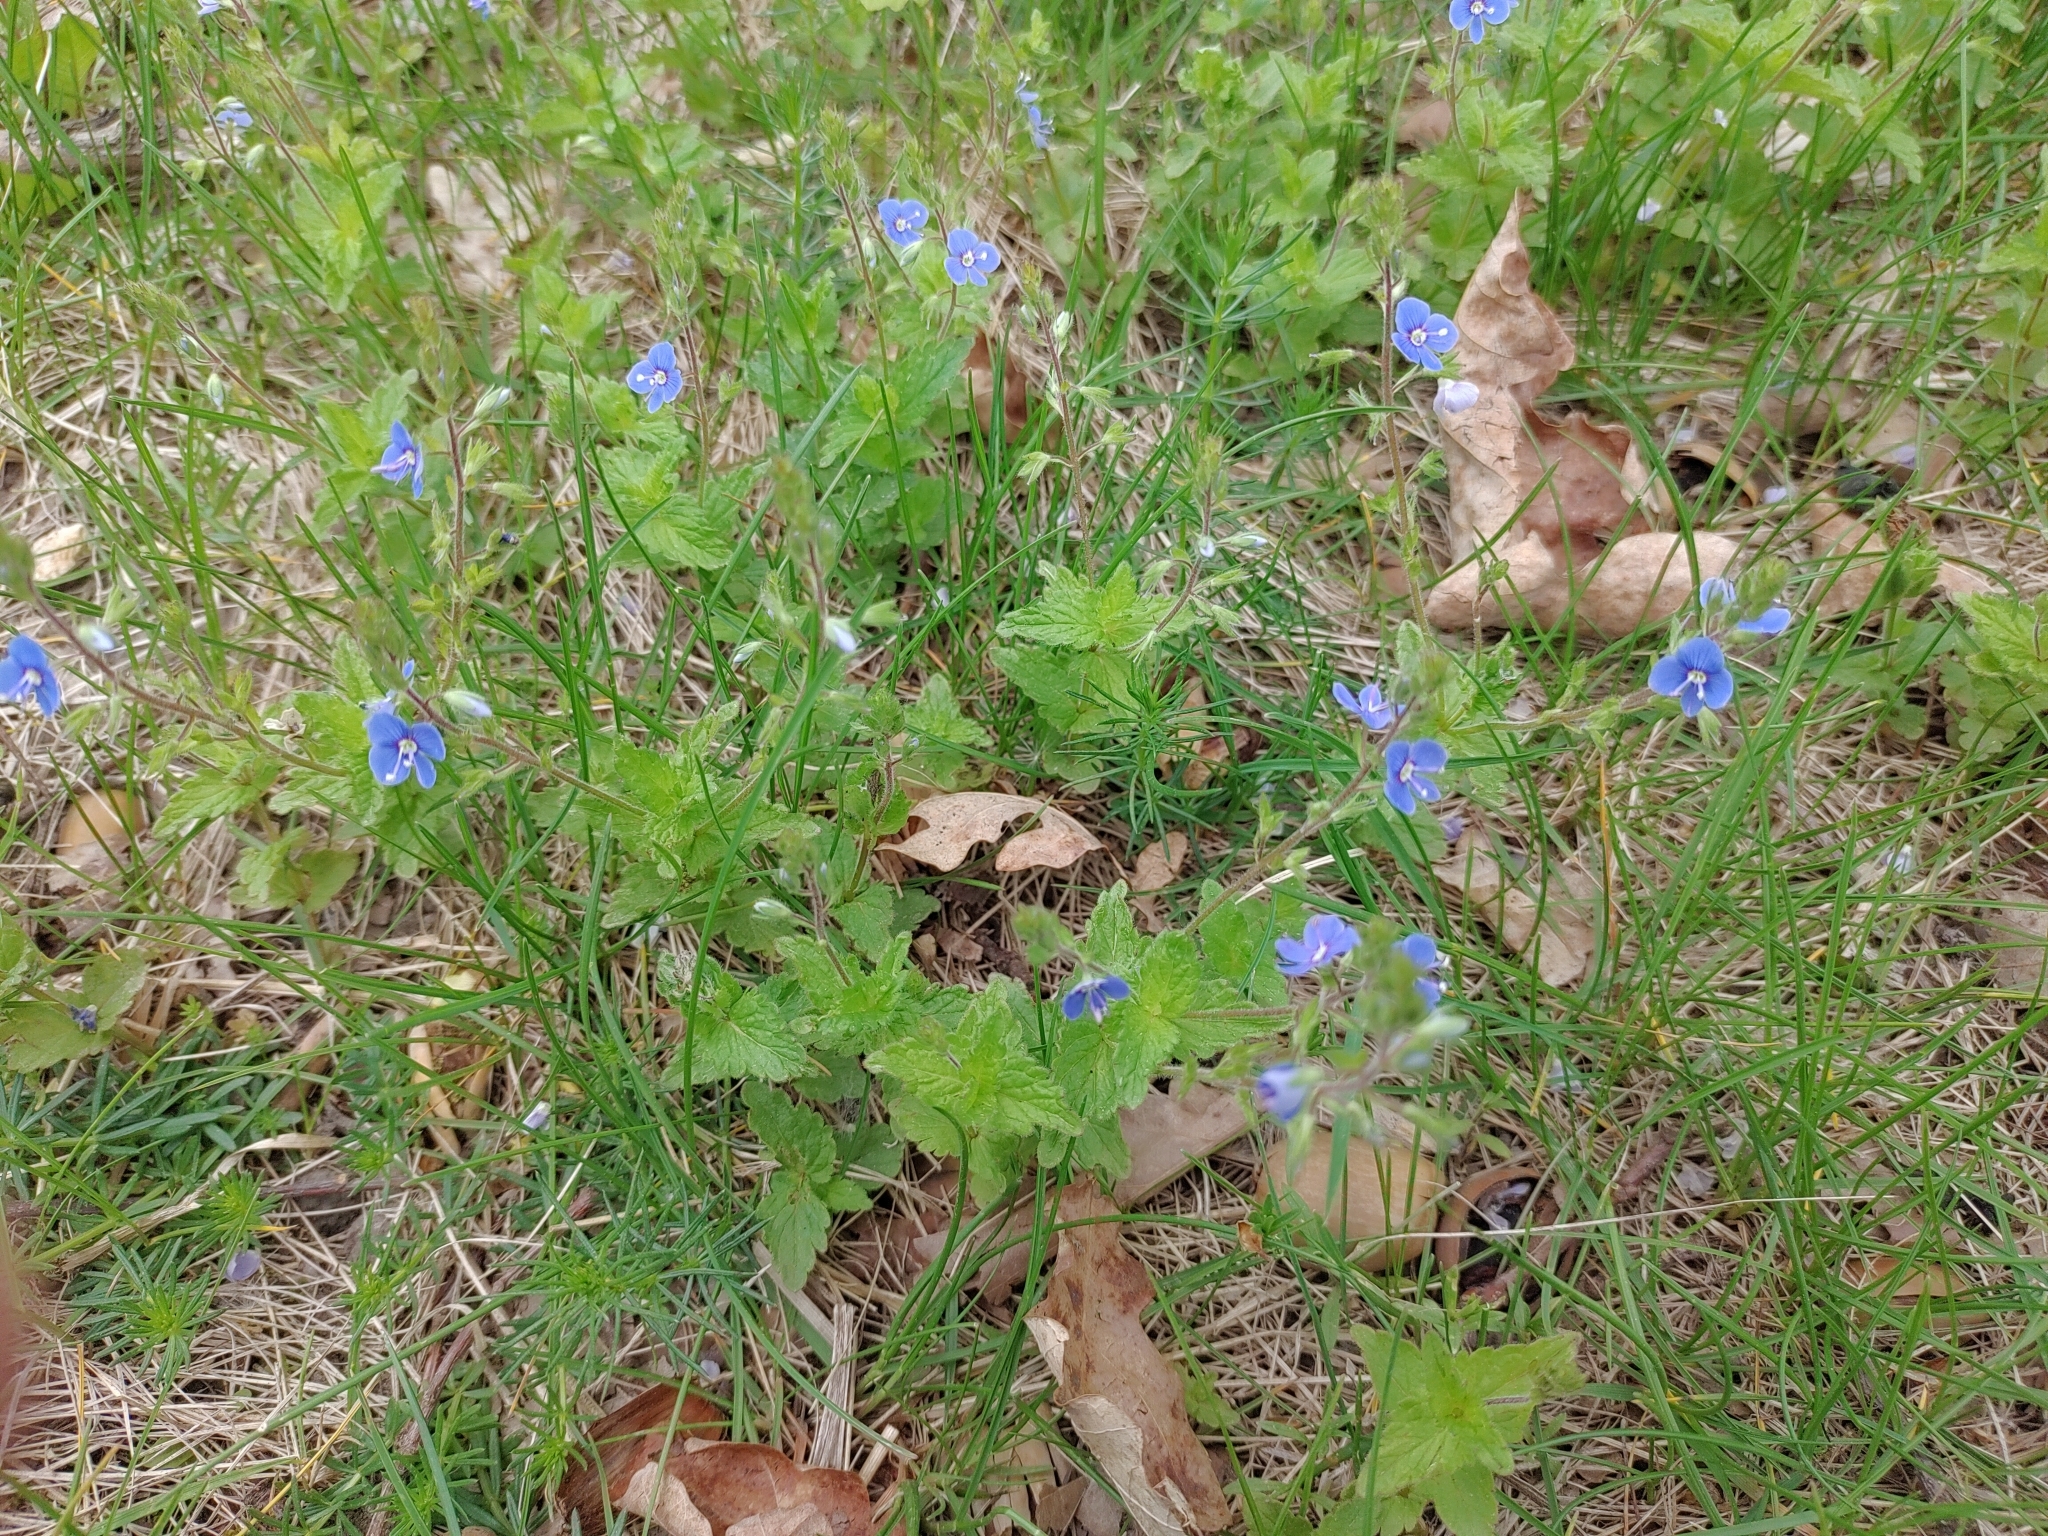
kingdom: Plantae
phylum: Tracheophyta
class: Magnoliopsida
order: Lamiales
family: Plantaginaceae
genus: Veronica
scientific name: Veronica chamaedrys
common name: Germander speedwell
